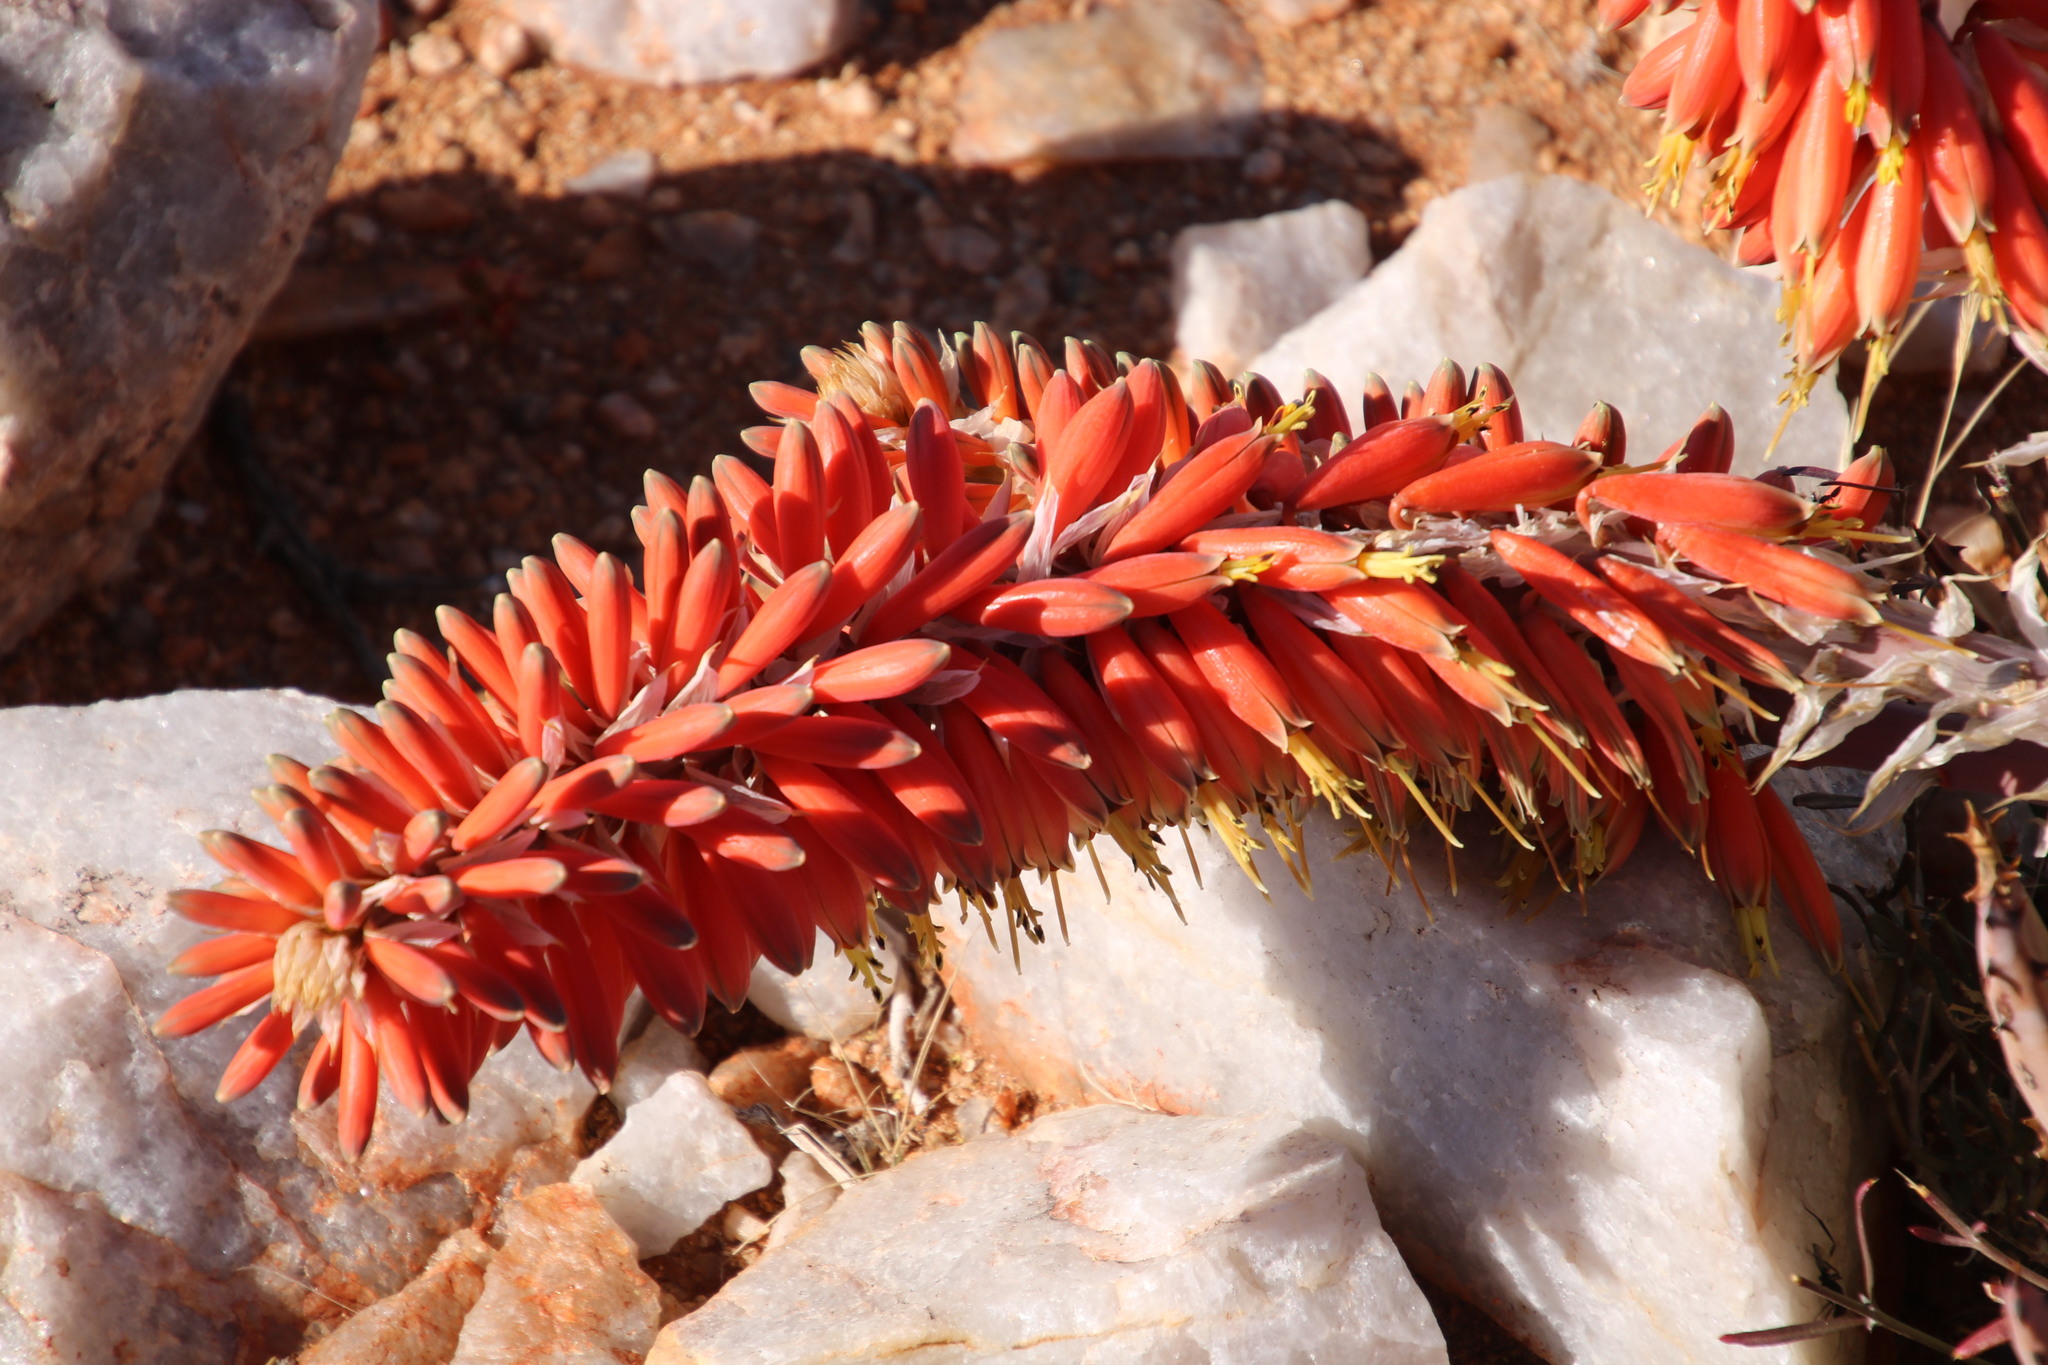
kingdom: Plantae
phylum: Tracheophyta
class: Liliopsida
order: Asparagales
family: Asphodelaceae
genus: Aloe
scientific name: Aloe claviflora
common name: Cannon aloe
